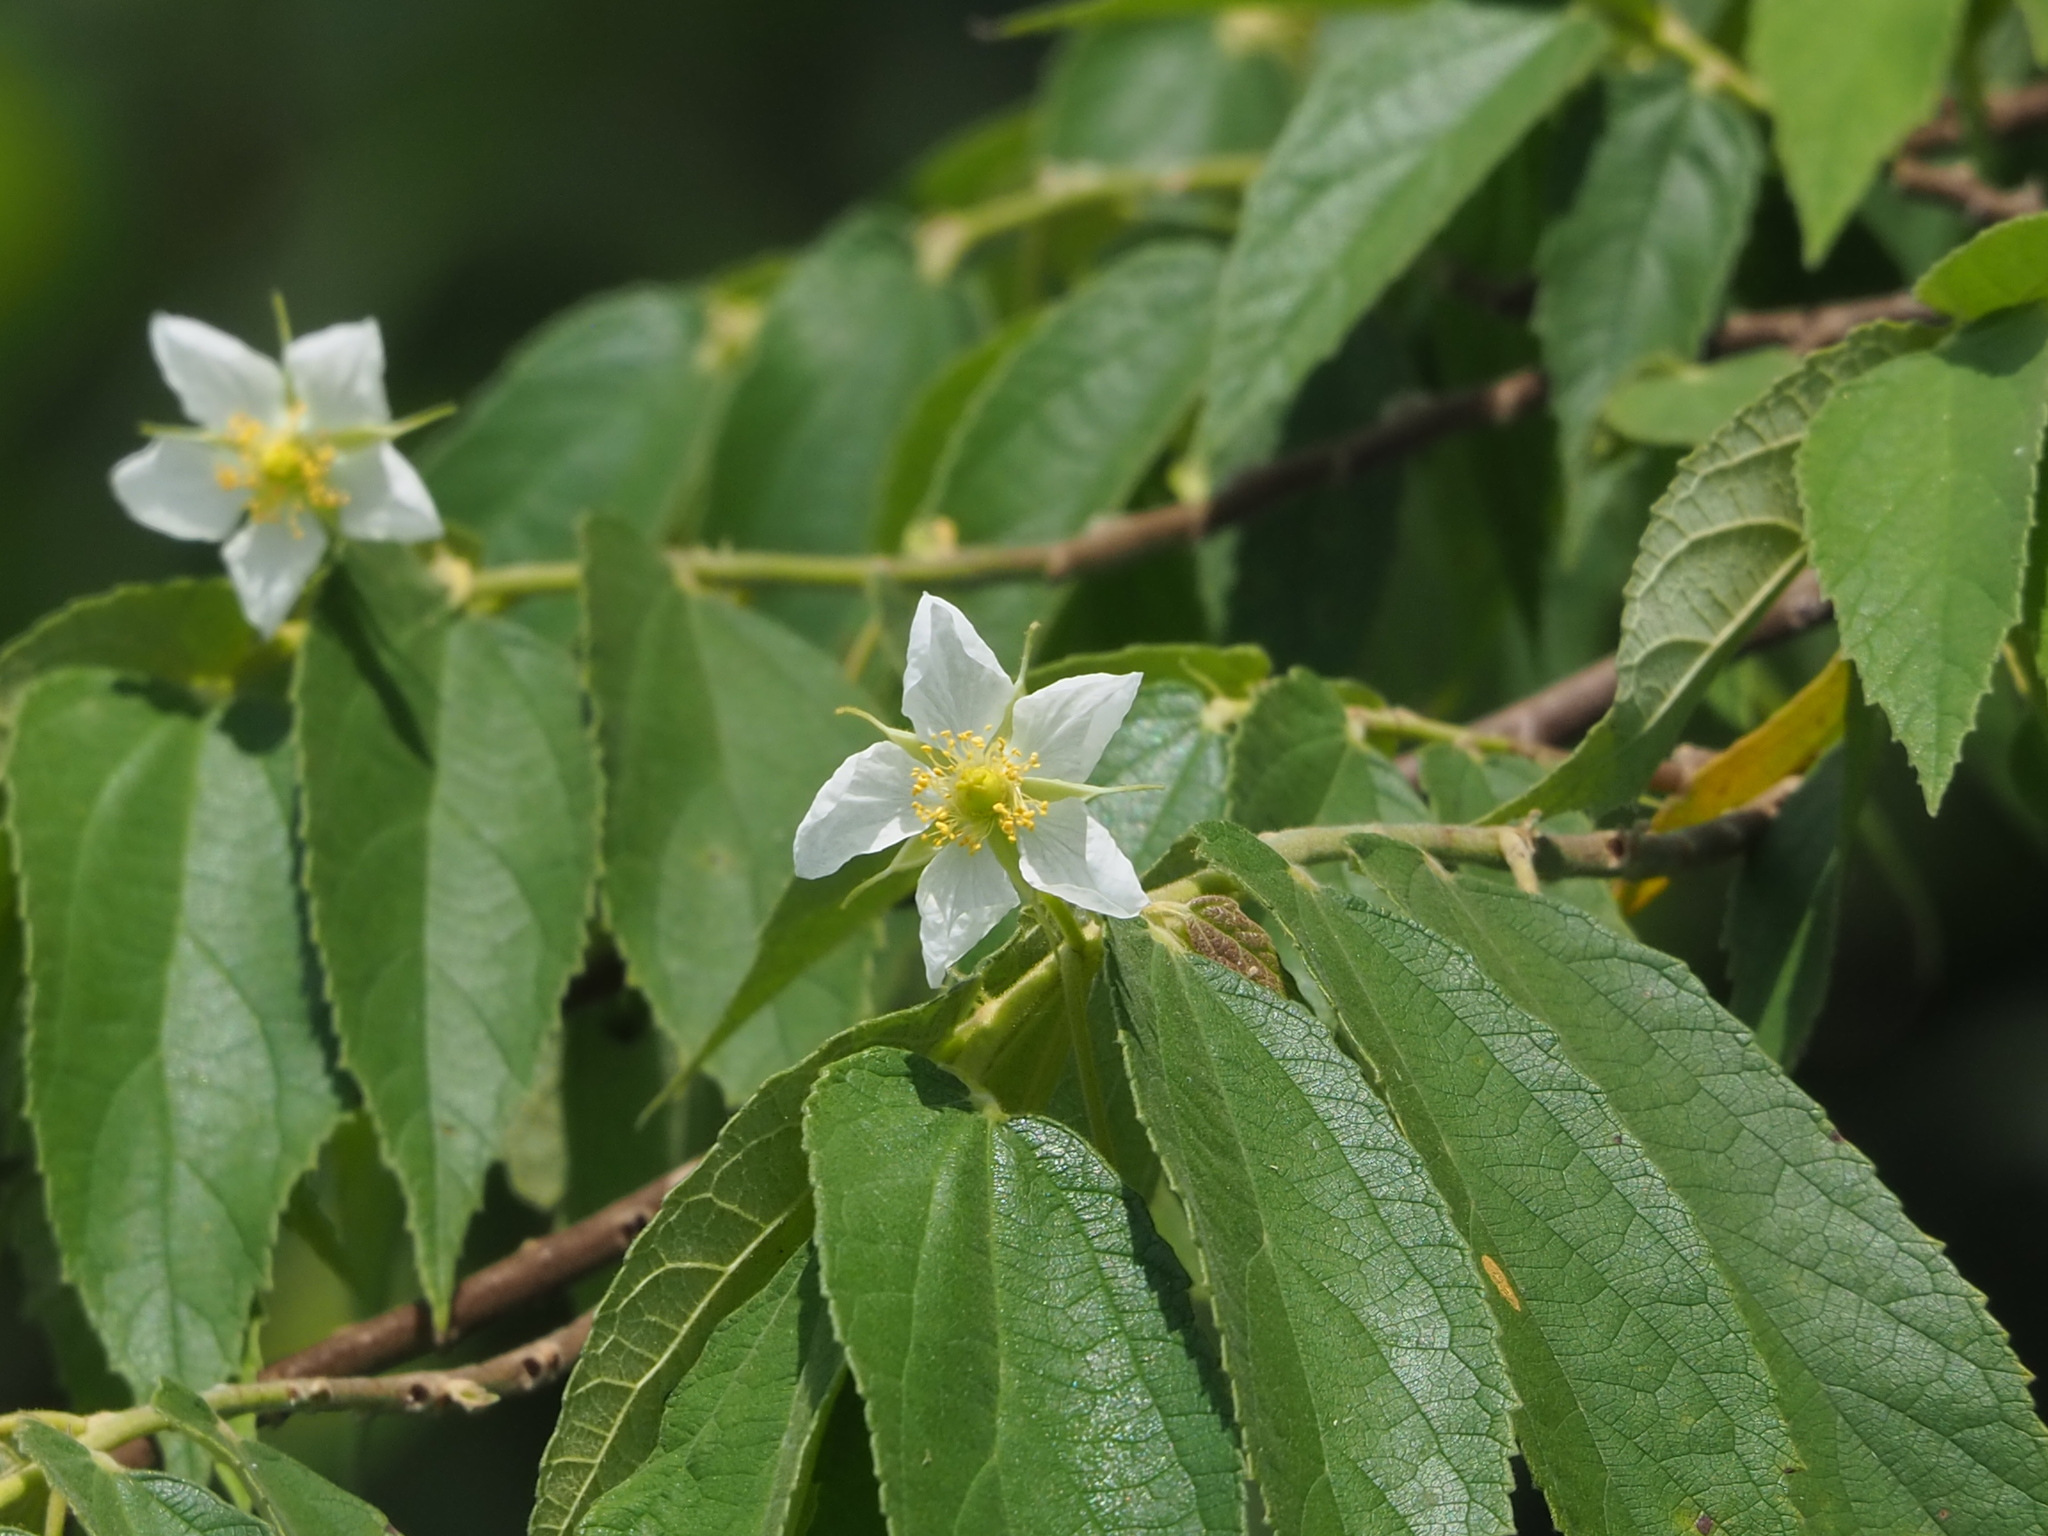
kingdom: Plantae
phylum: Tracheophyta
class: Magnoliopsida
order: Malvales
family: Muntingiaceae
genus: Muntingia
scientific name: Muntingia calabura
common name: Strawberrytree
